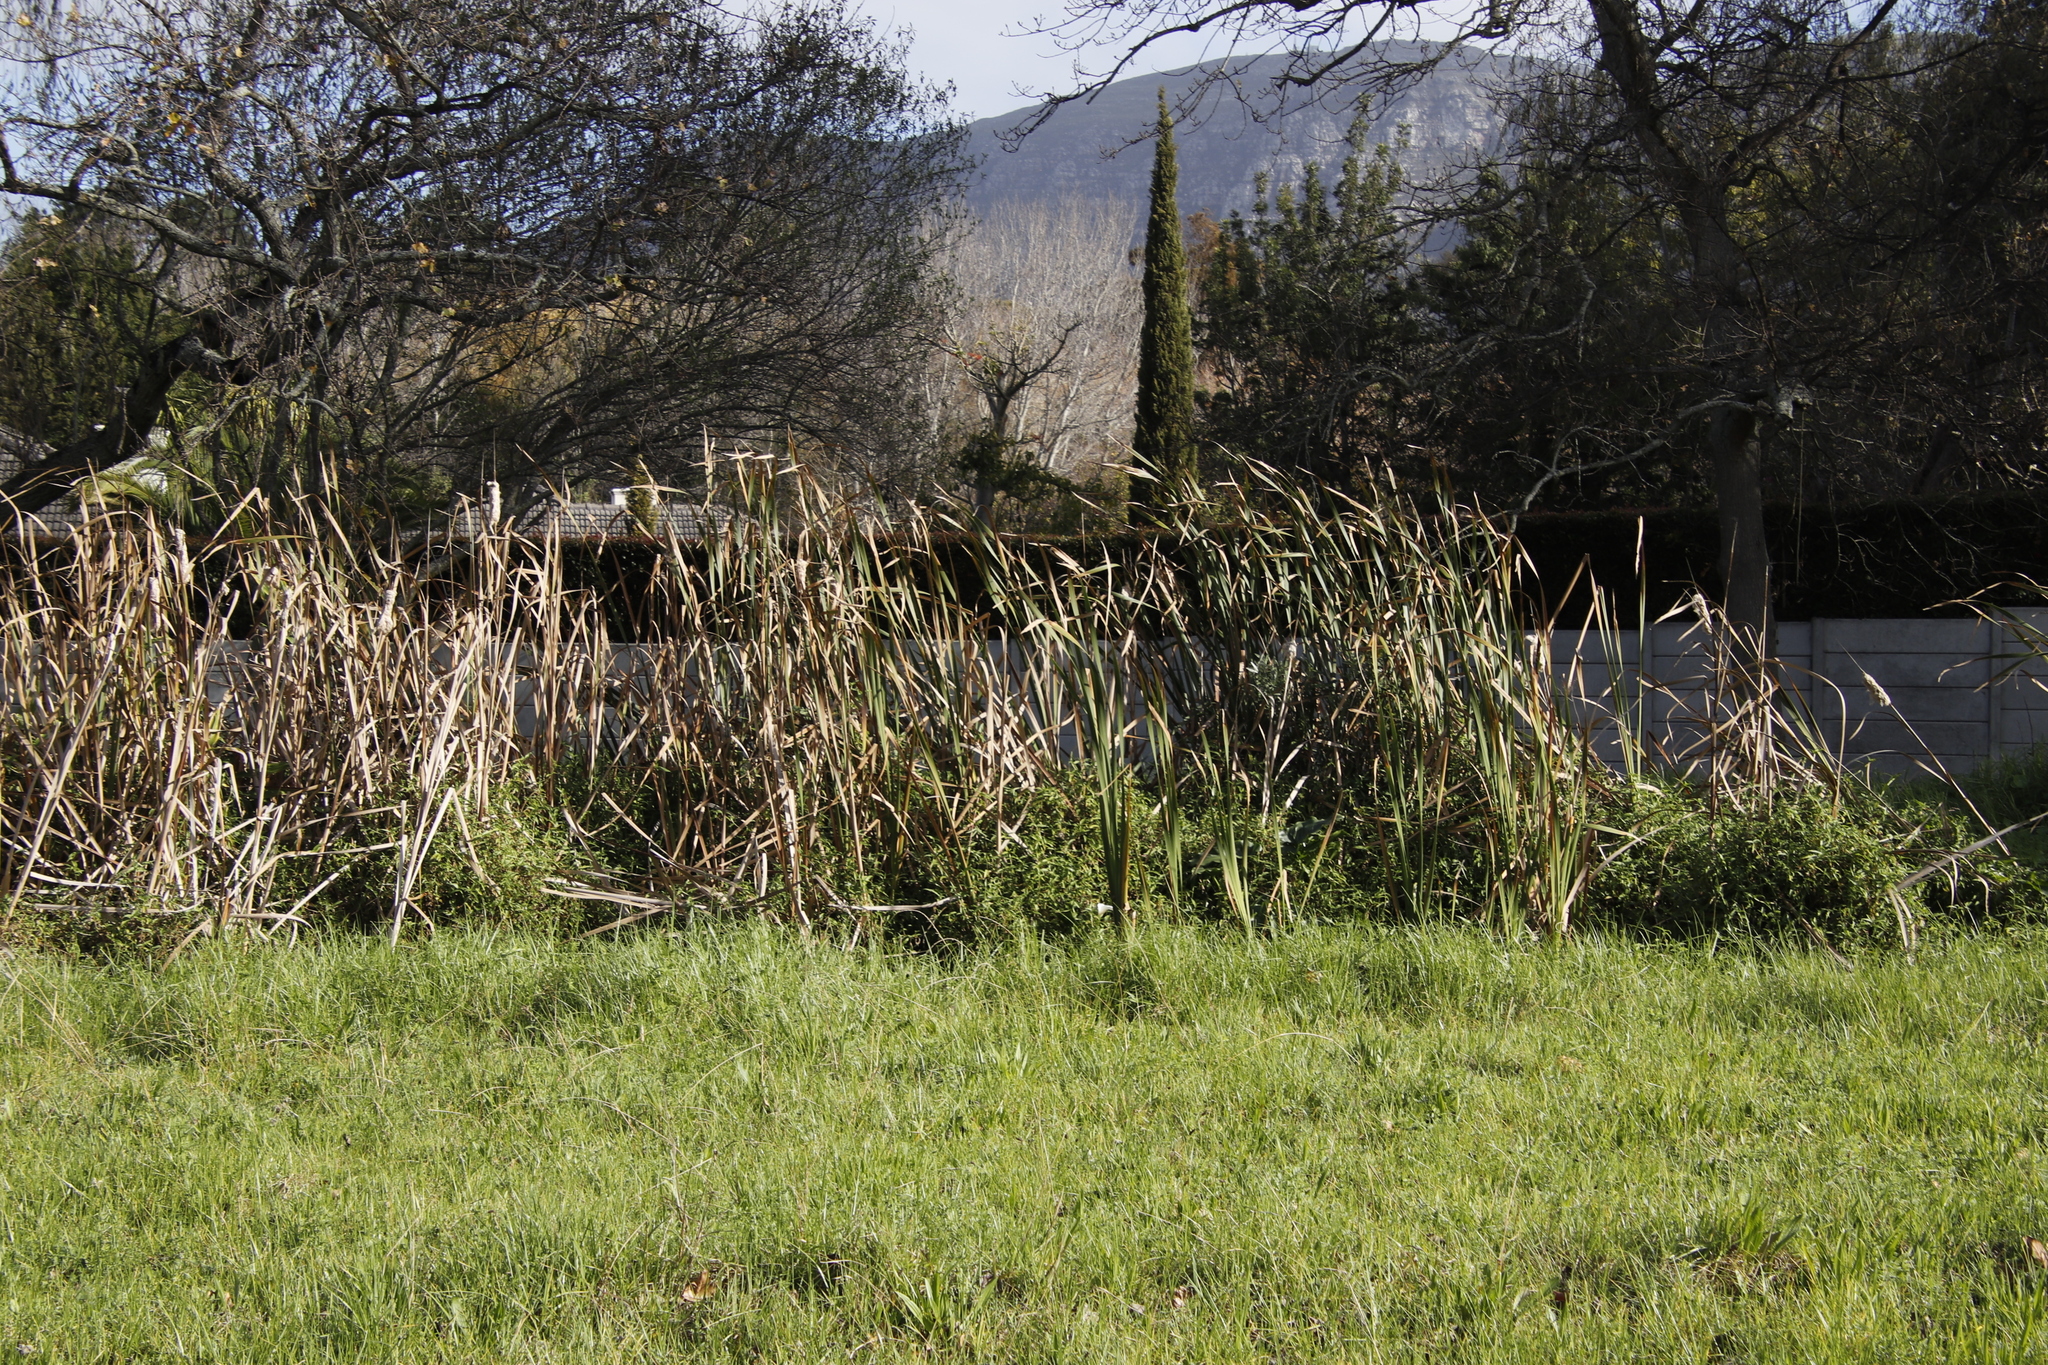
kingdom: Plantae
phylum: Tracheophyta
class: Liliopsida
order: Poales
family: Typhaceae
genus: Typha
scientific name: Typha capensis
